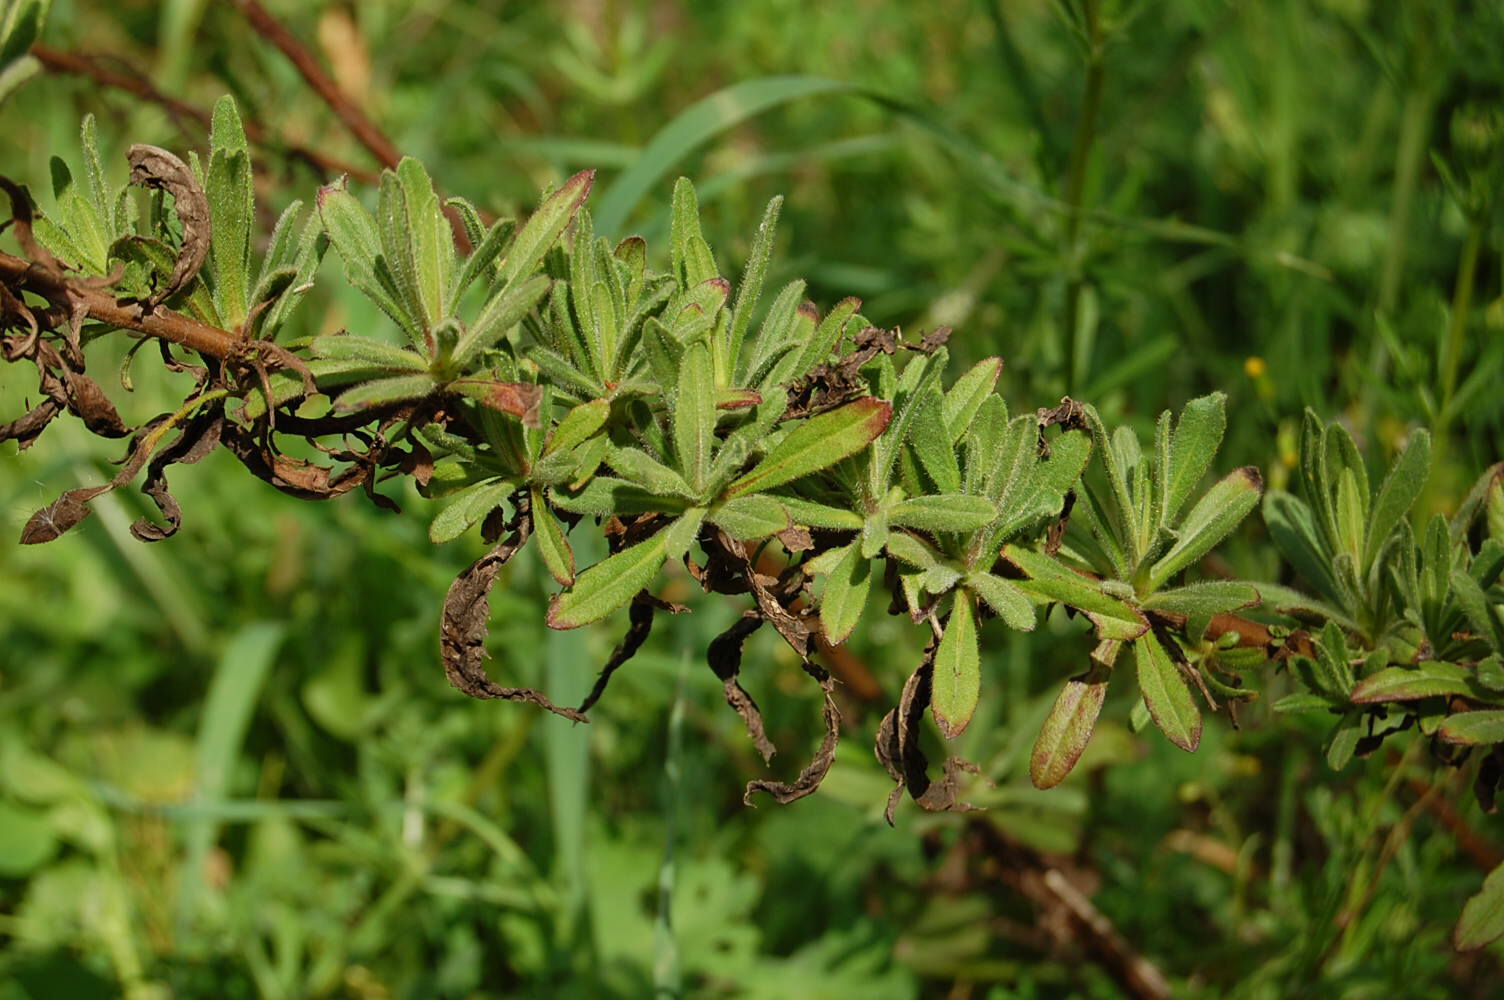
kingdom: Plantae
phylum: Tracheophyta
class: Magnoliopsida
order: Asterales
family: Asteraceae
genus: Dittrichia
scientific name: Dittrichia viscosa
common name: Woody fleabane
